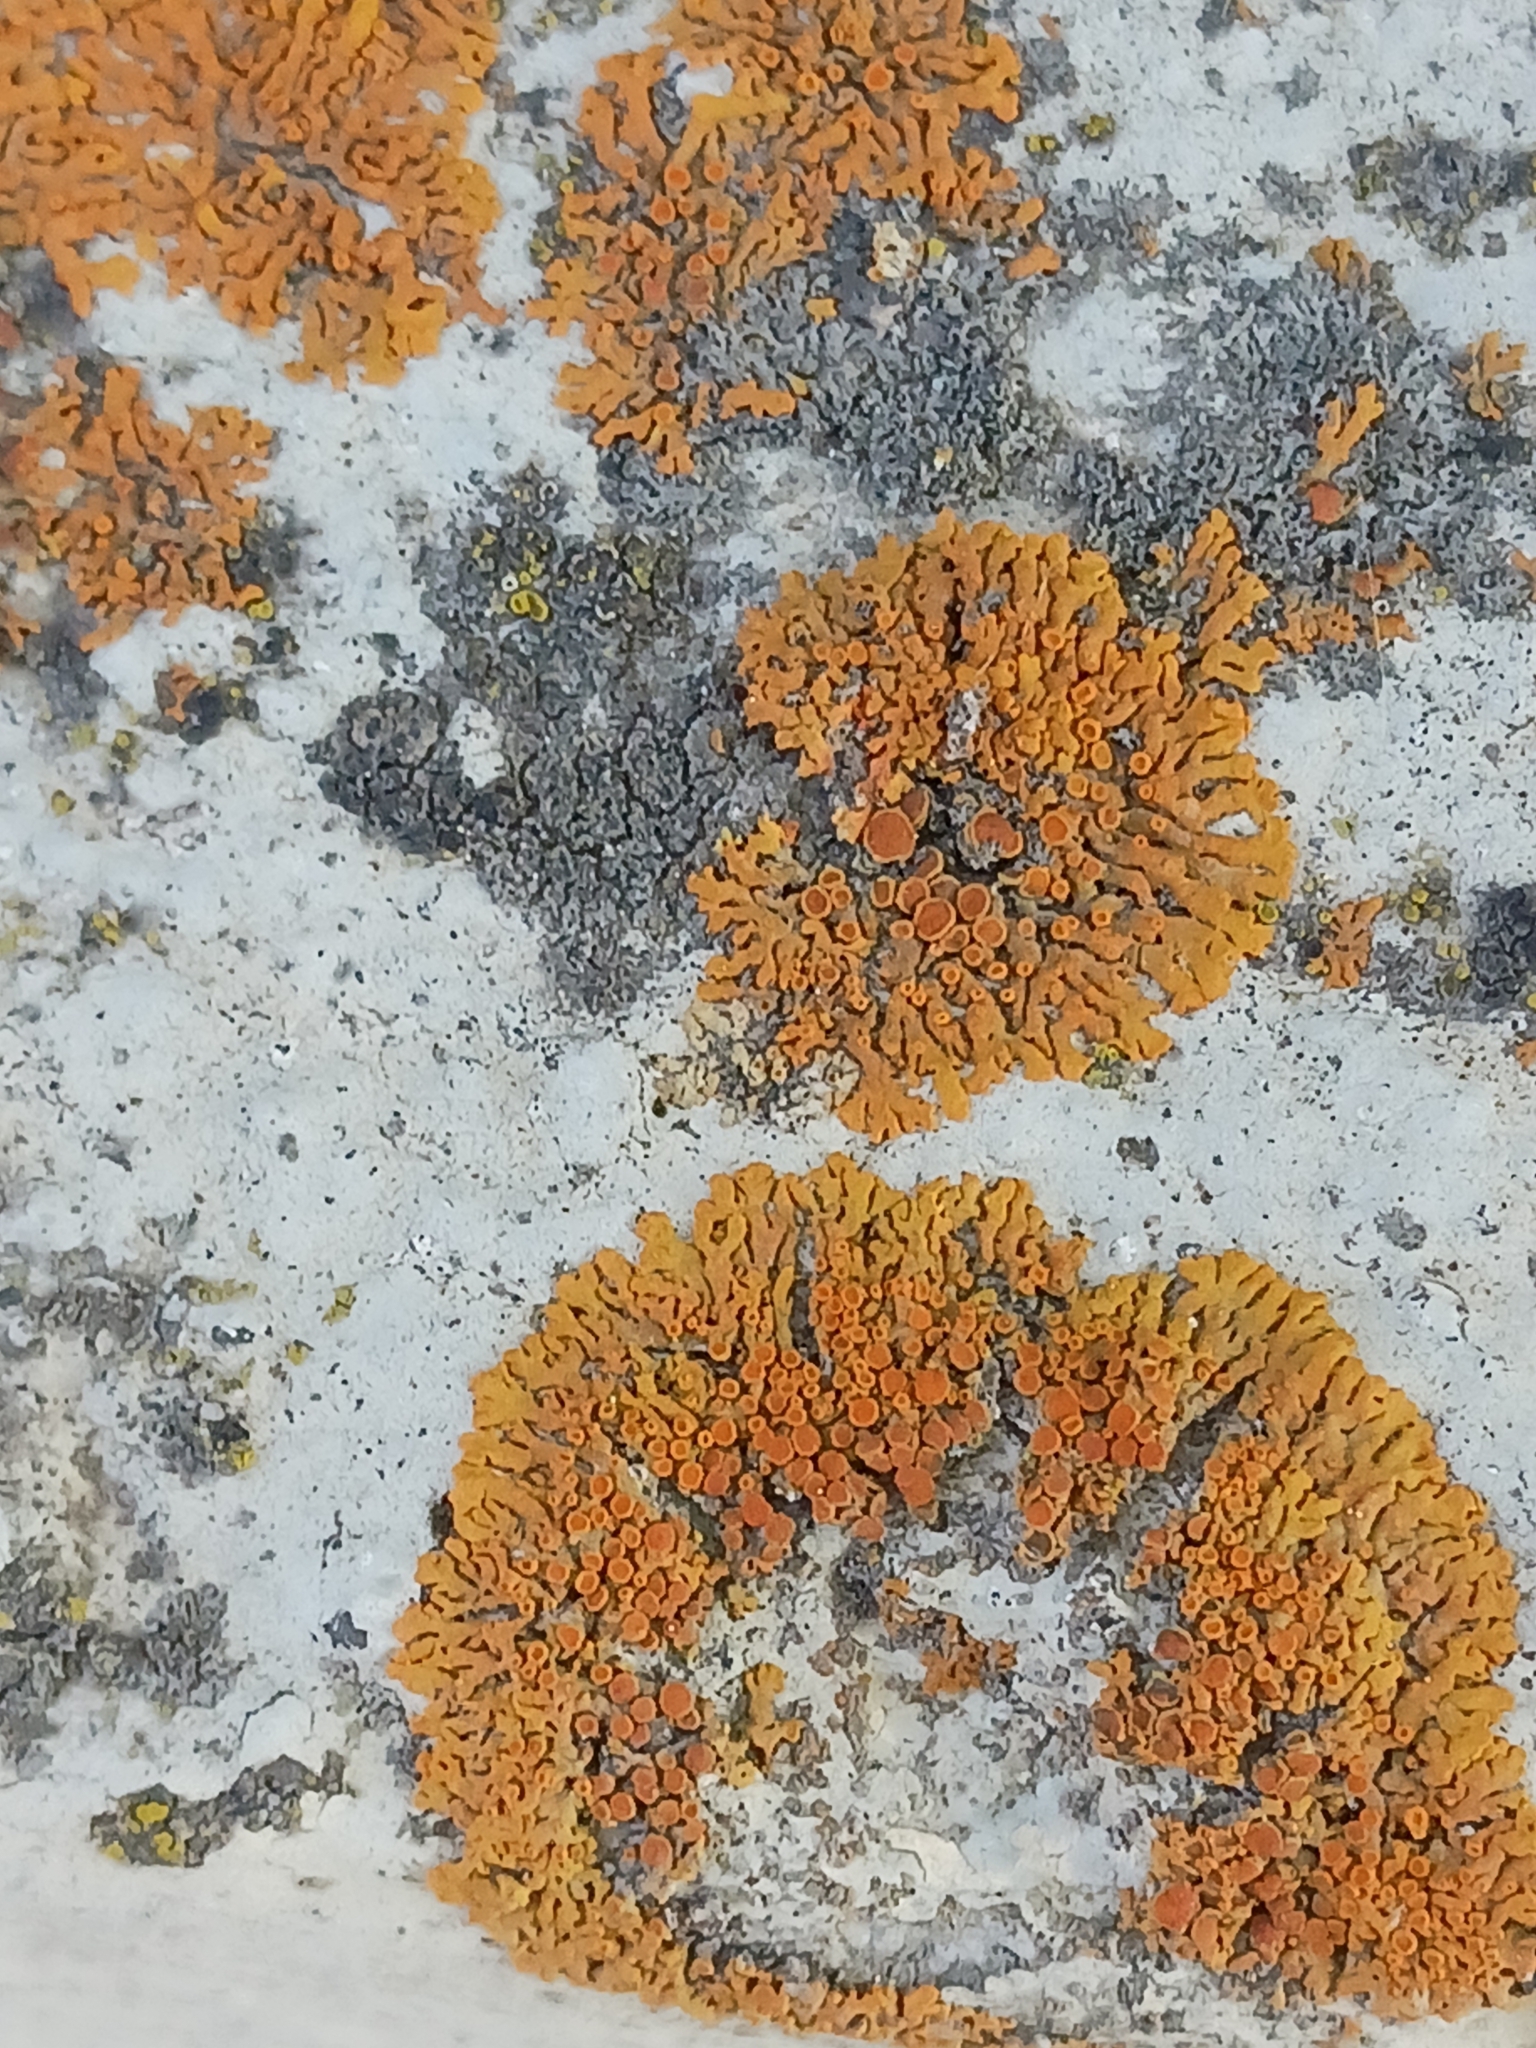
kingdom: Fungi
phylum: Ascomycota
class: Lecanoromycetes
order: Teloschistales
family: Teloschistaceae
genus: Xanthoria
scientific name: Xanthoria elegans
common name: Elegant sunburst lichen
